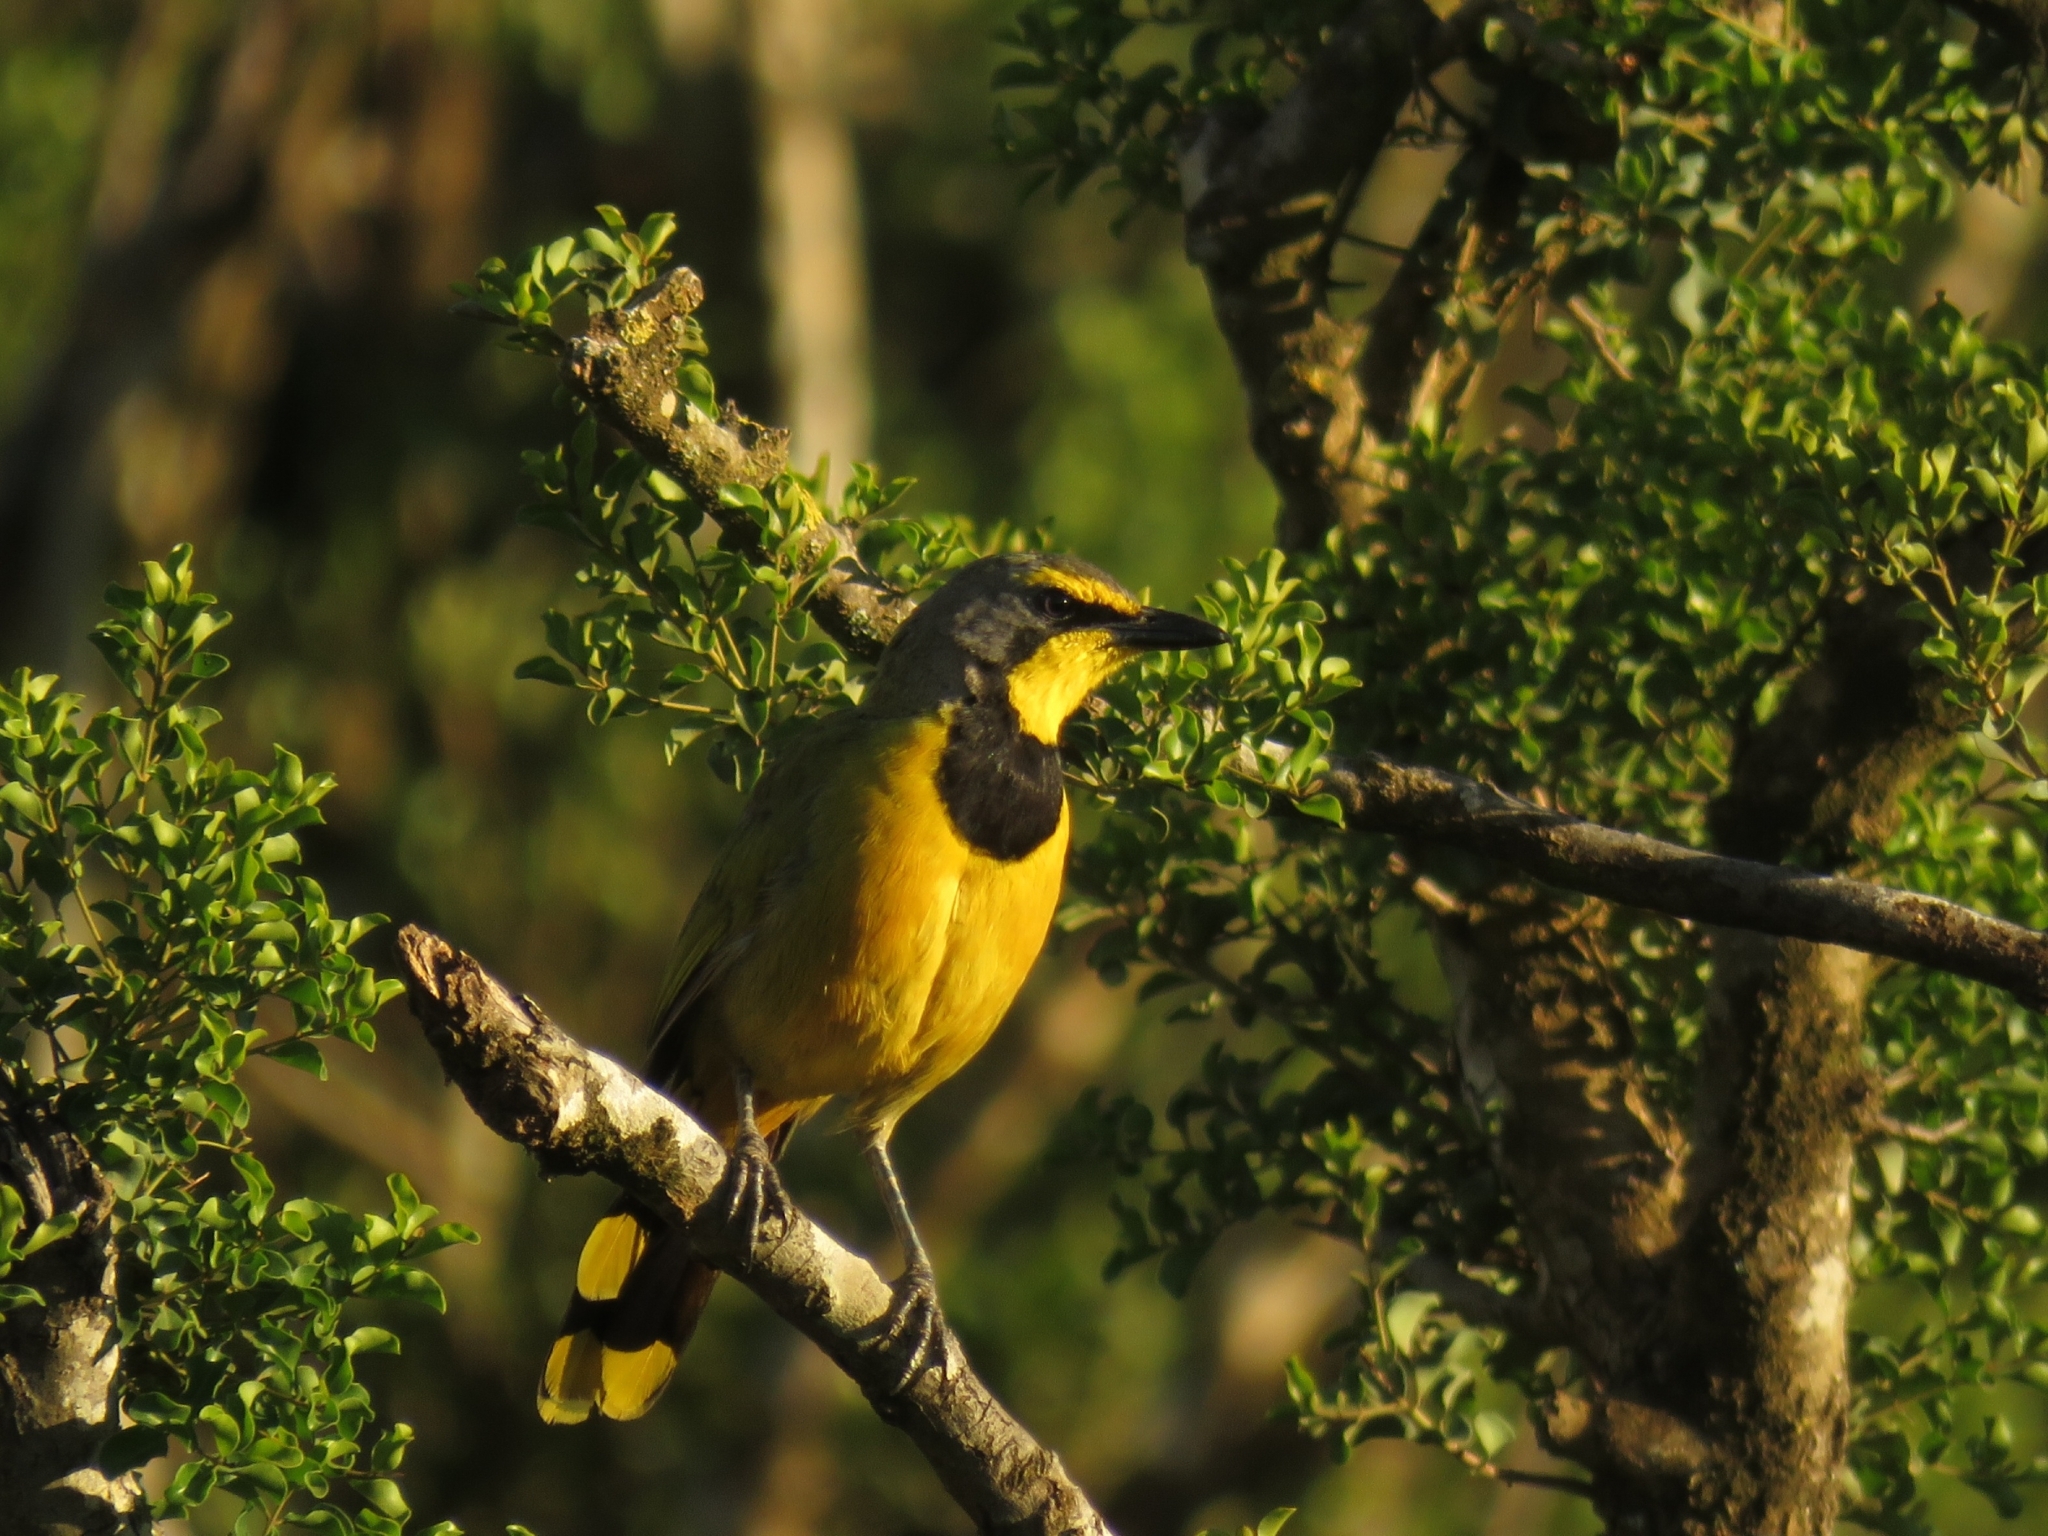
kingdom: Animalia
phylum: Chordata
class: Aves
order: Passeriformes
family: Malaconotidae
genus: Telophorus
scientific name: Telophorus zeylonus
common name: Bokmakierie
